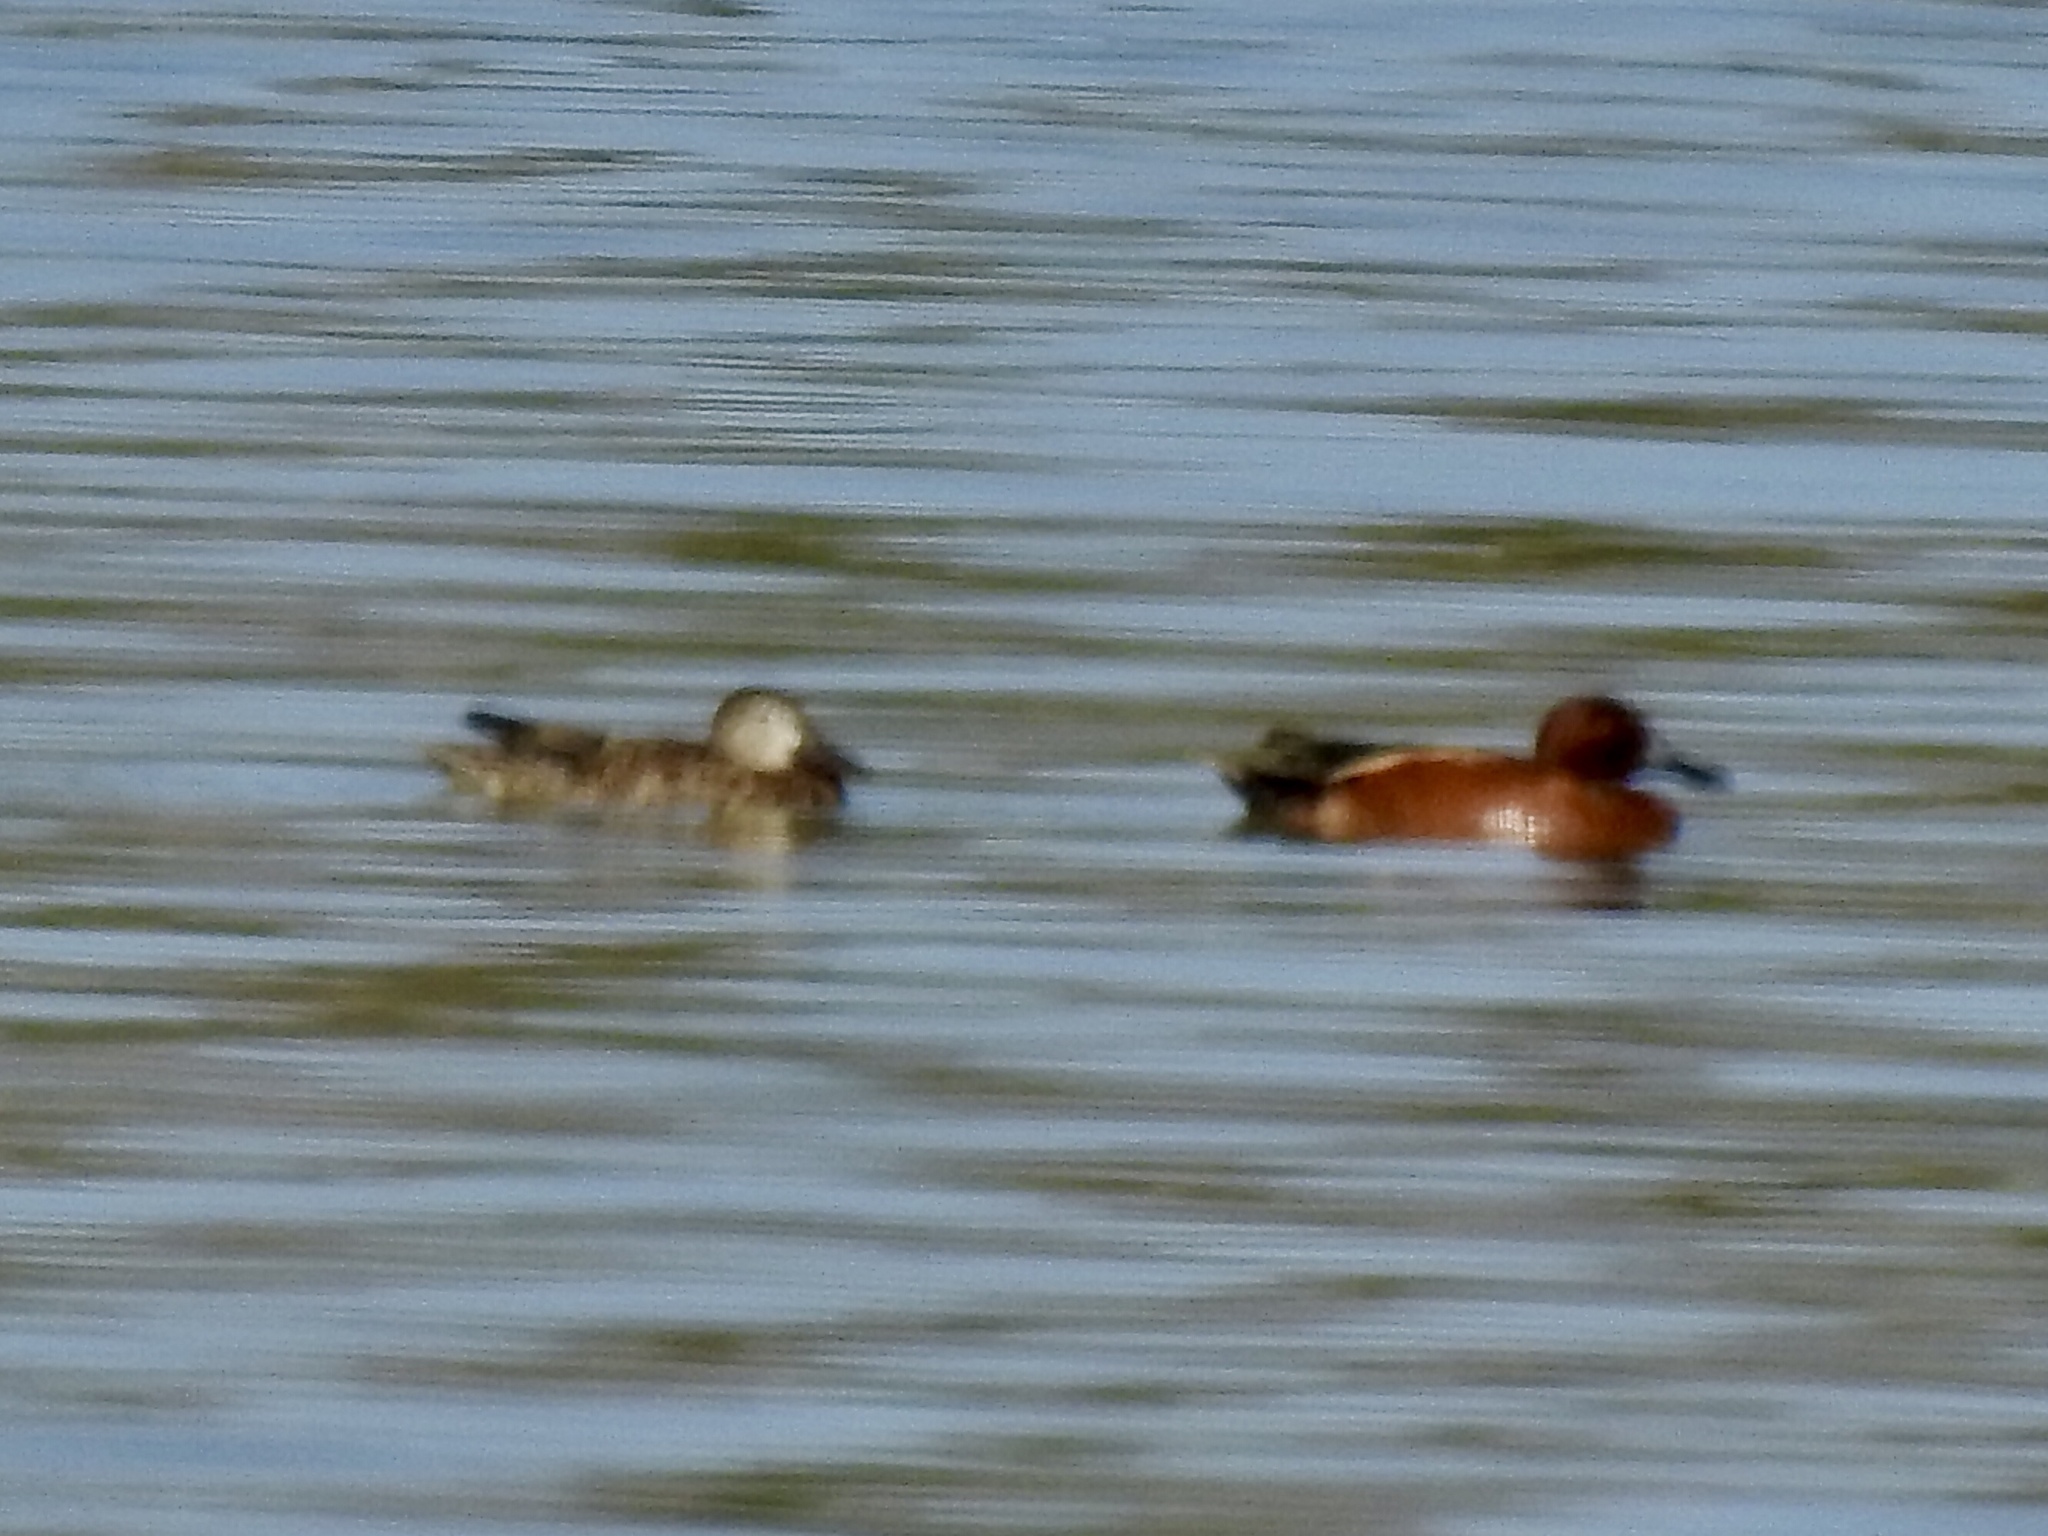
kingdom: Animalia
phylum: Chordata
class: Aves
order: Anseriformes
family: Anatidae
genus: Spatula
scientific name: Spatula cyanoptera
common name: Cinnamon teal
